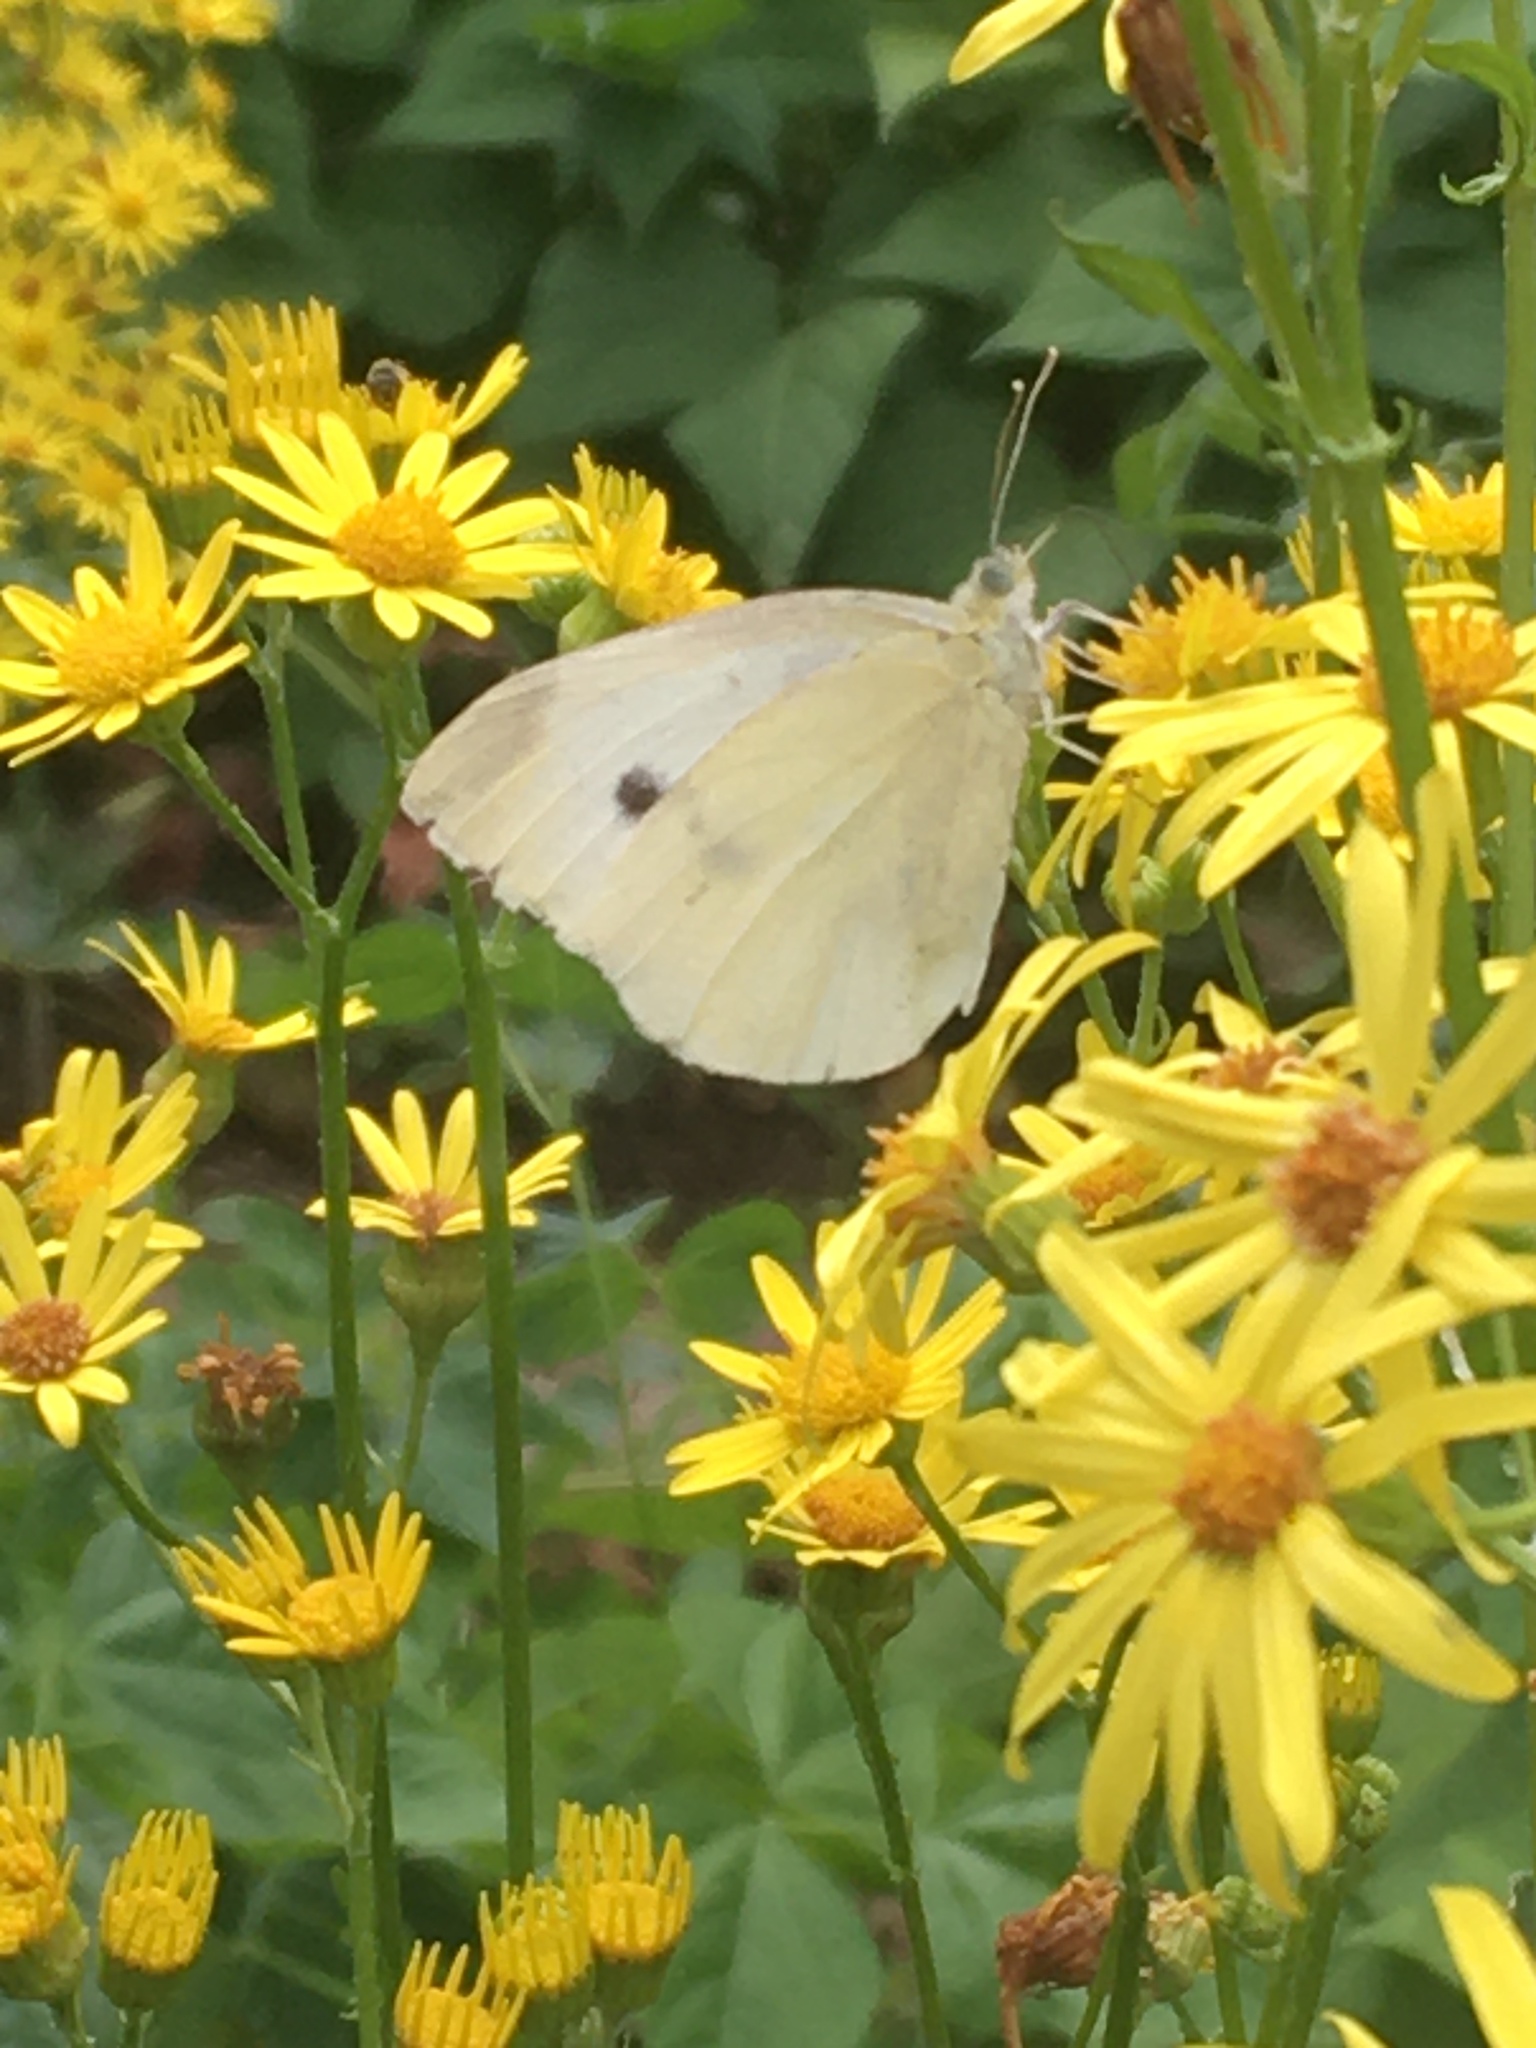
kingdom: Animalia
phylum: Arthropoda
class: Insecta
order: Lepidoptera
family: Pieridae
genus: Pieris
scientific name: Pieris rapae
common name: Small white
